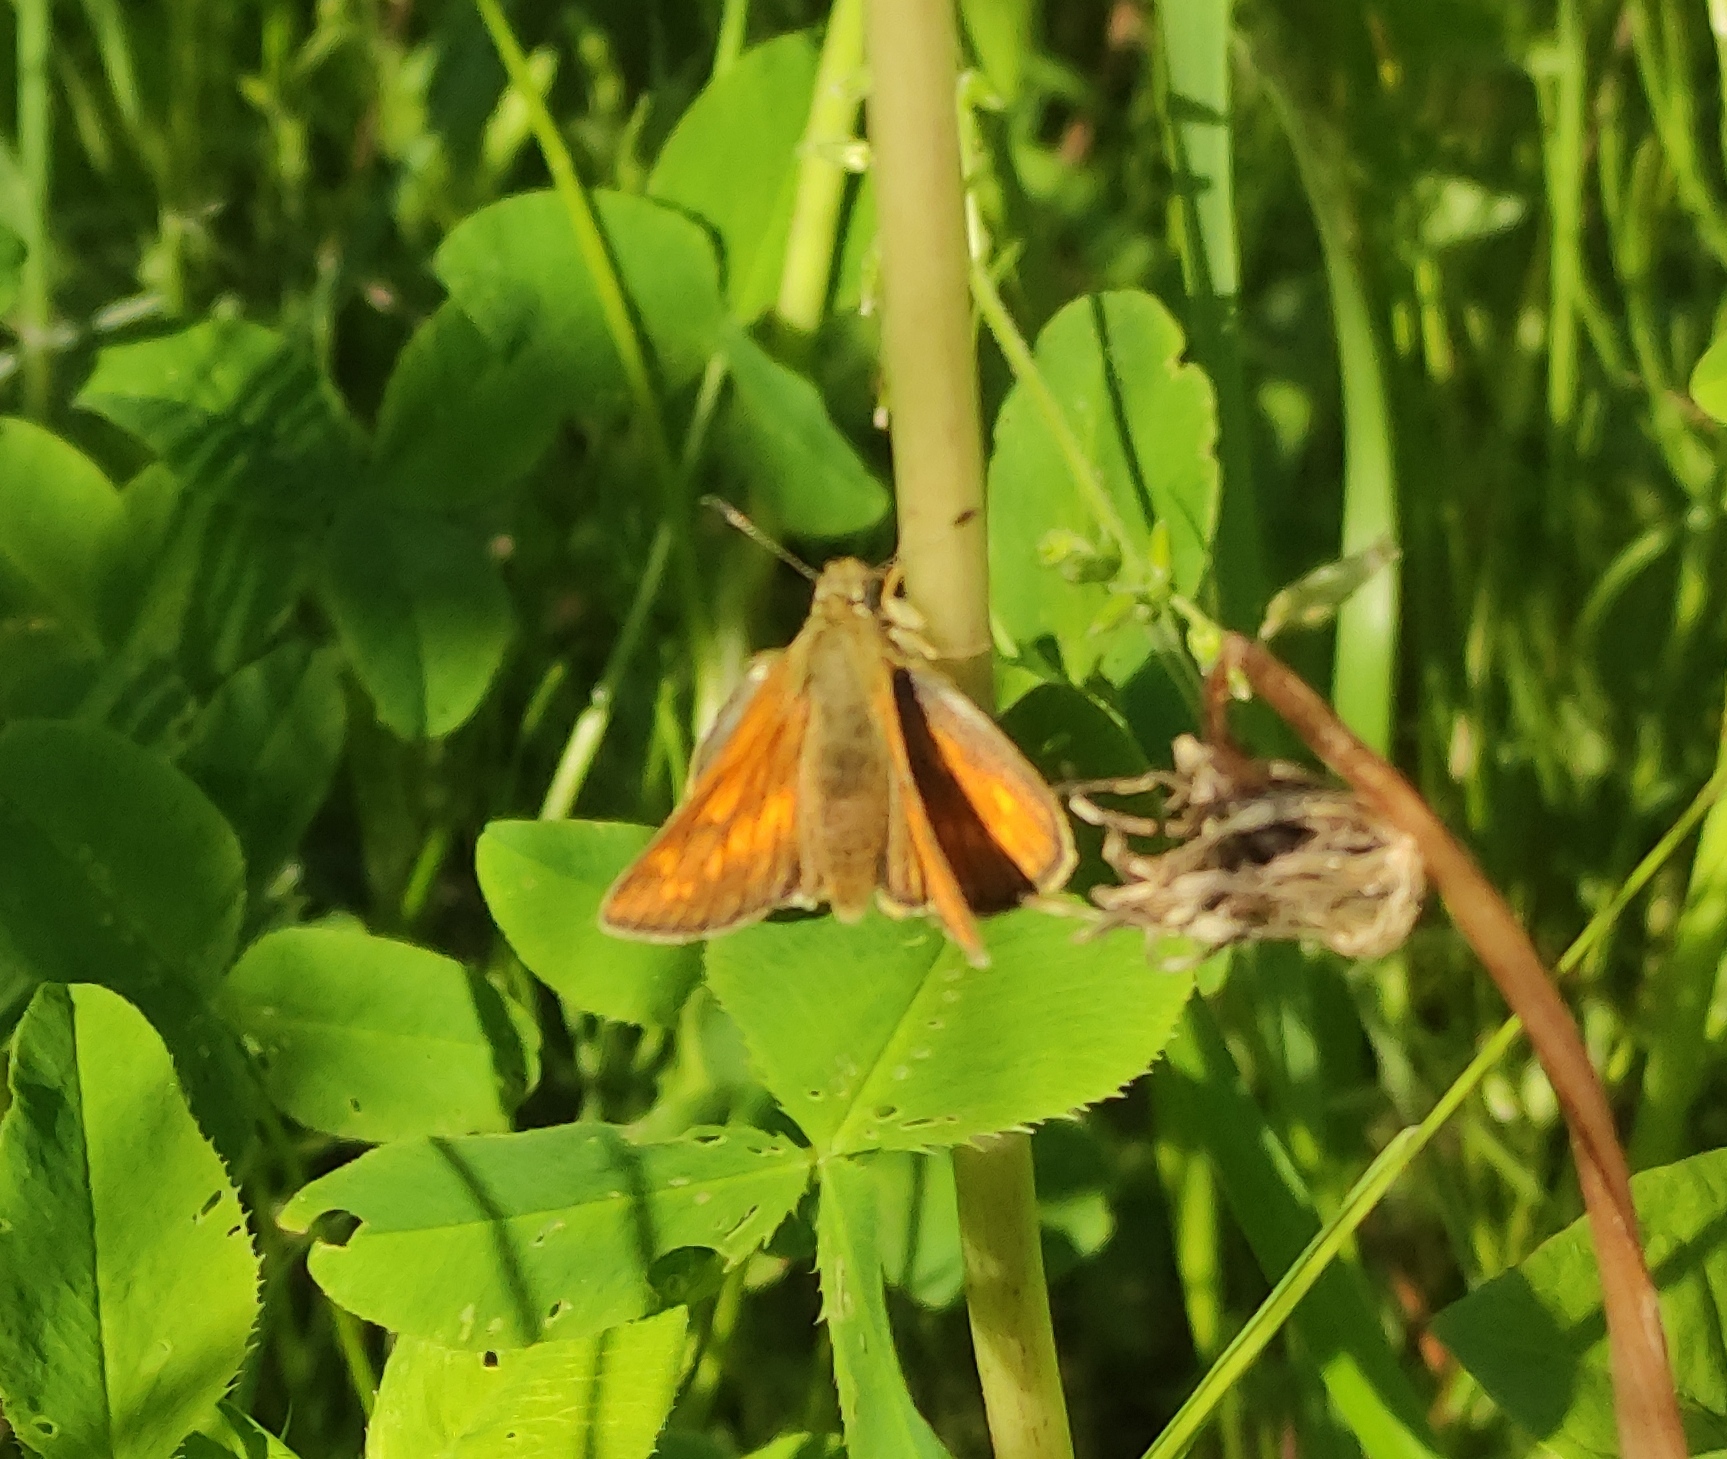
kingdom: Animalia
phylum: Arthropoda
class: Insecta
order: Lepidoptera
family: Hesperiidae
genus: Ochlodes
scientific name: Ochlodes venata
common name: Large skipper
